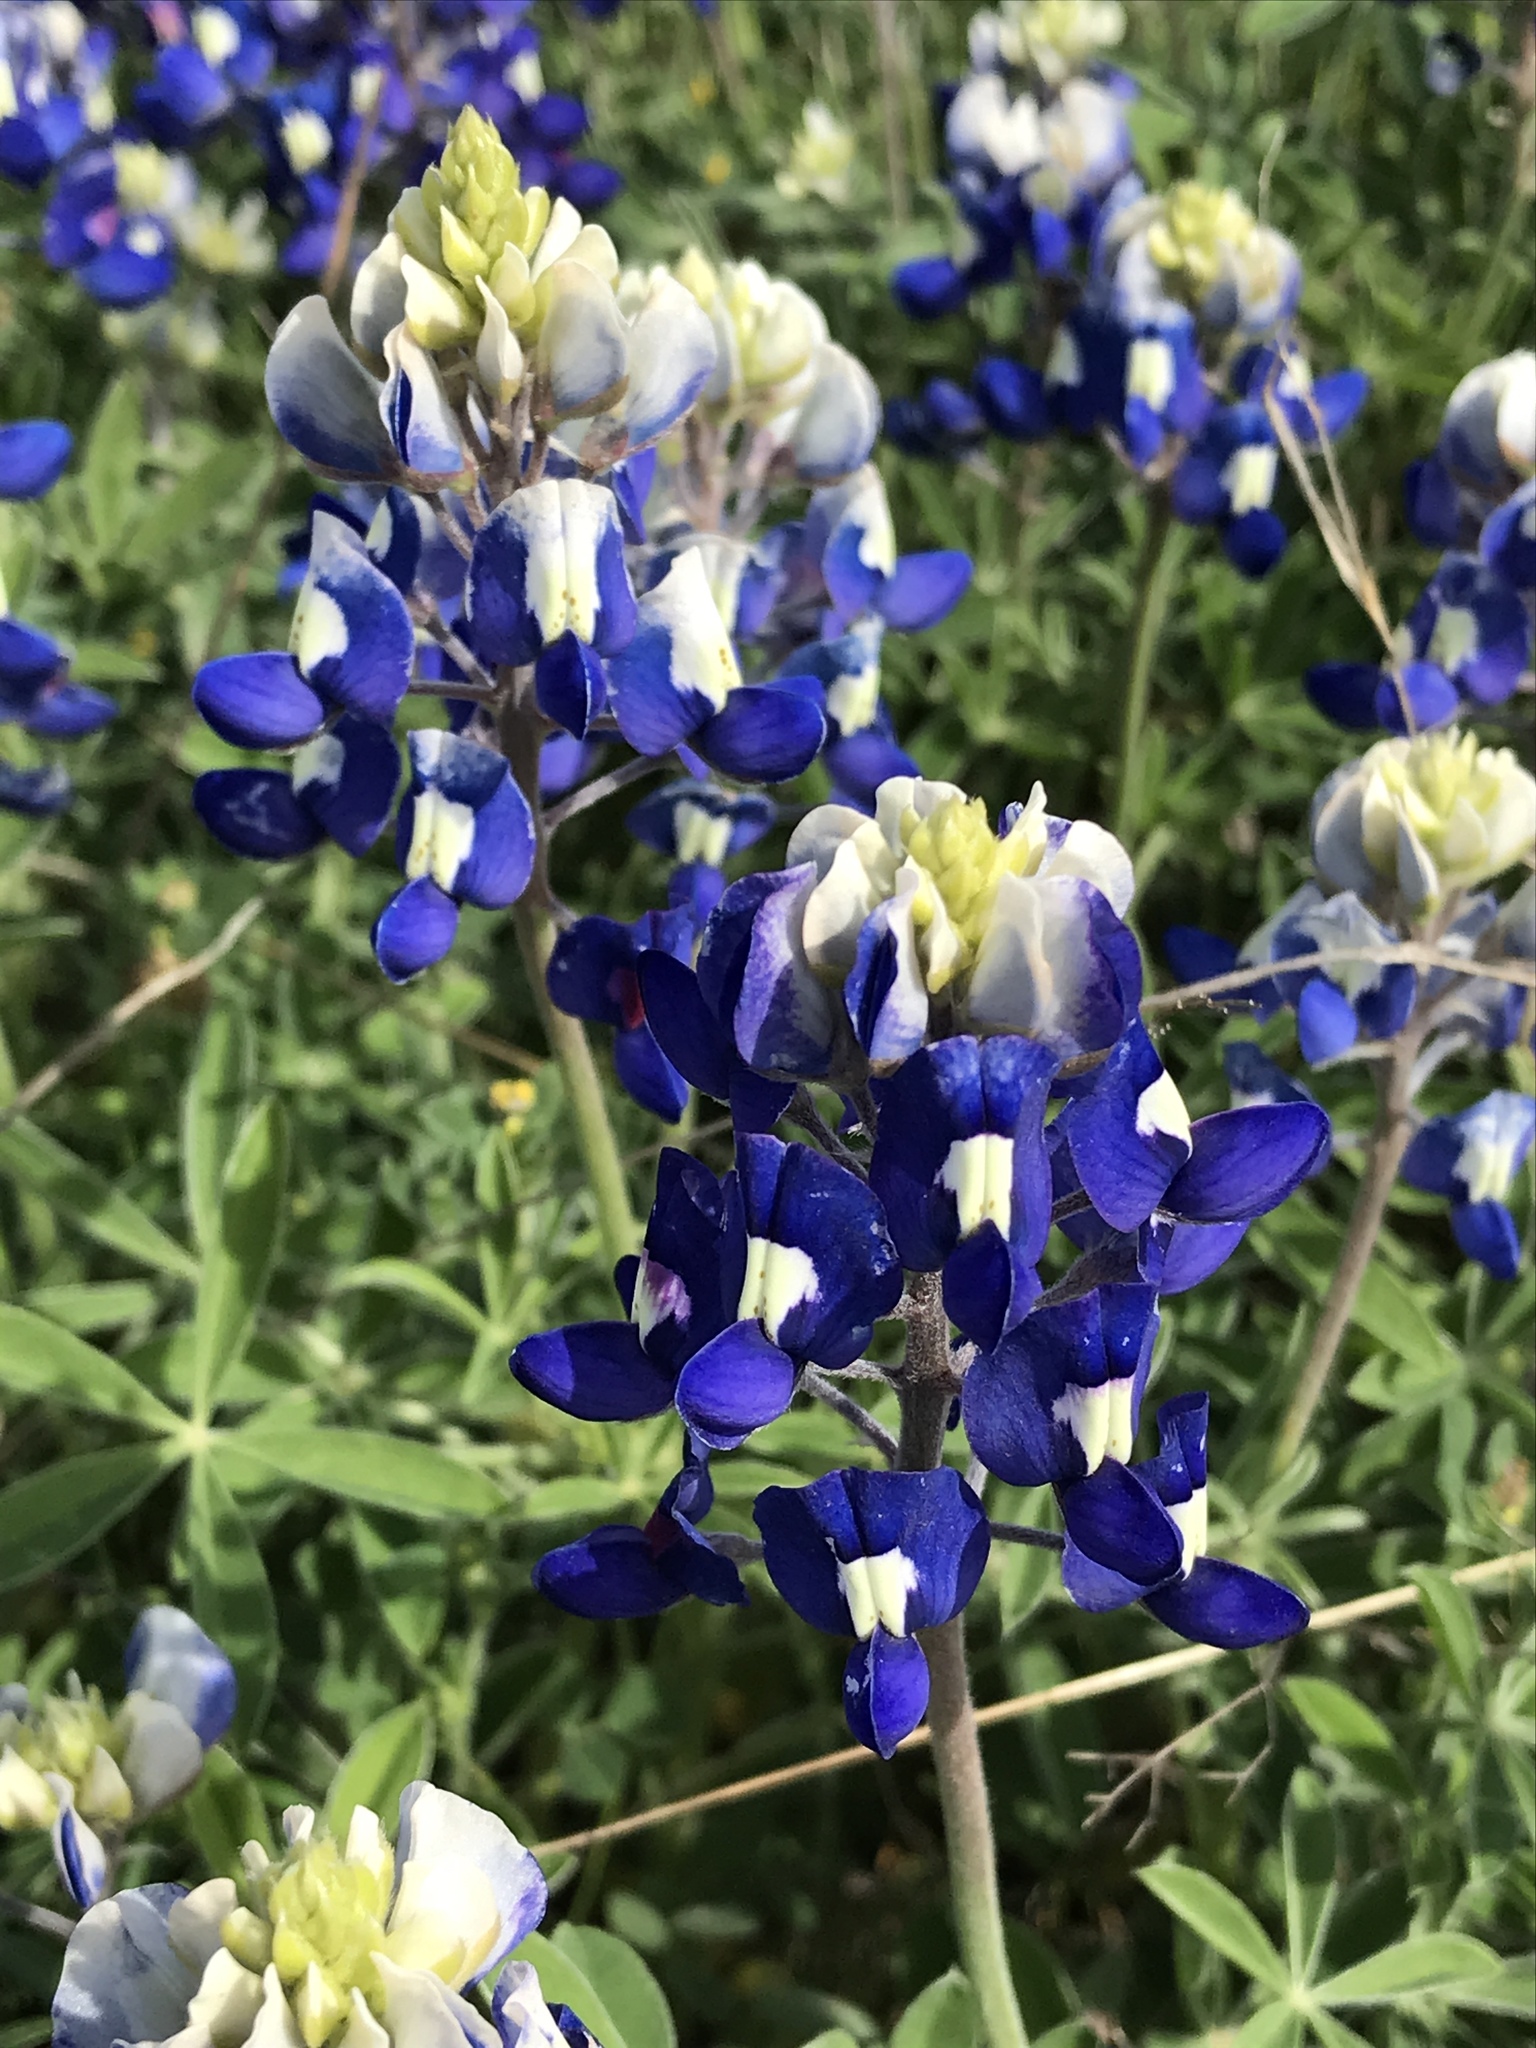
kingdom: Plantae
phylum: Tracheophyta
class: Magnoliopsida
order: Fabales
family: Fabaceae
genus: Lupinus
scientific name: Lupinus texensis
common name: Texas bluebonnet
